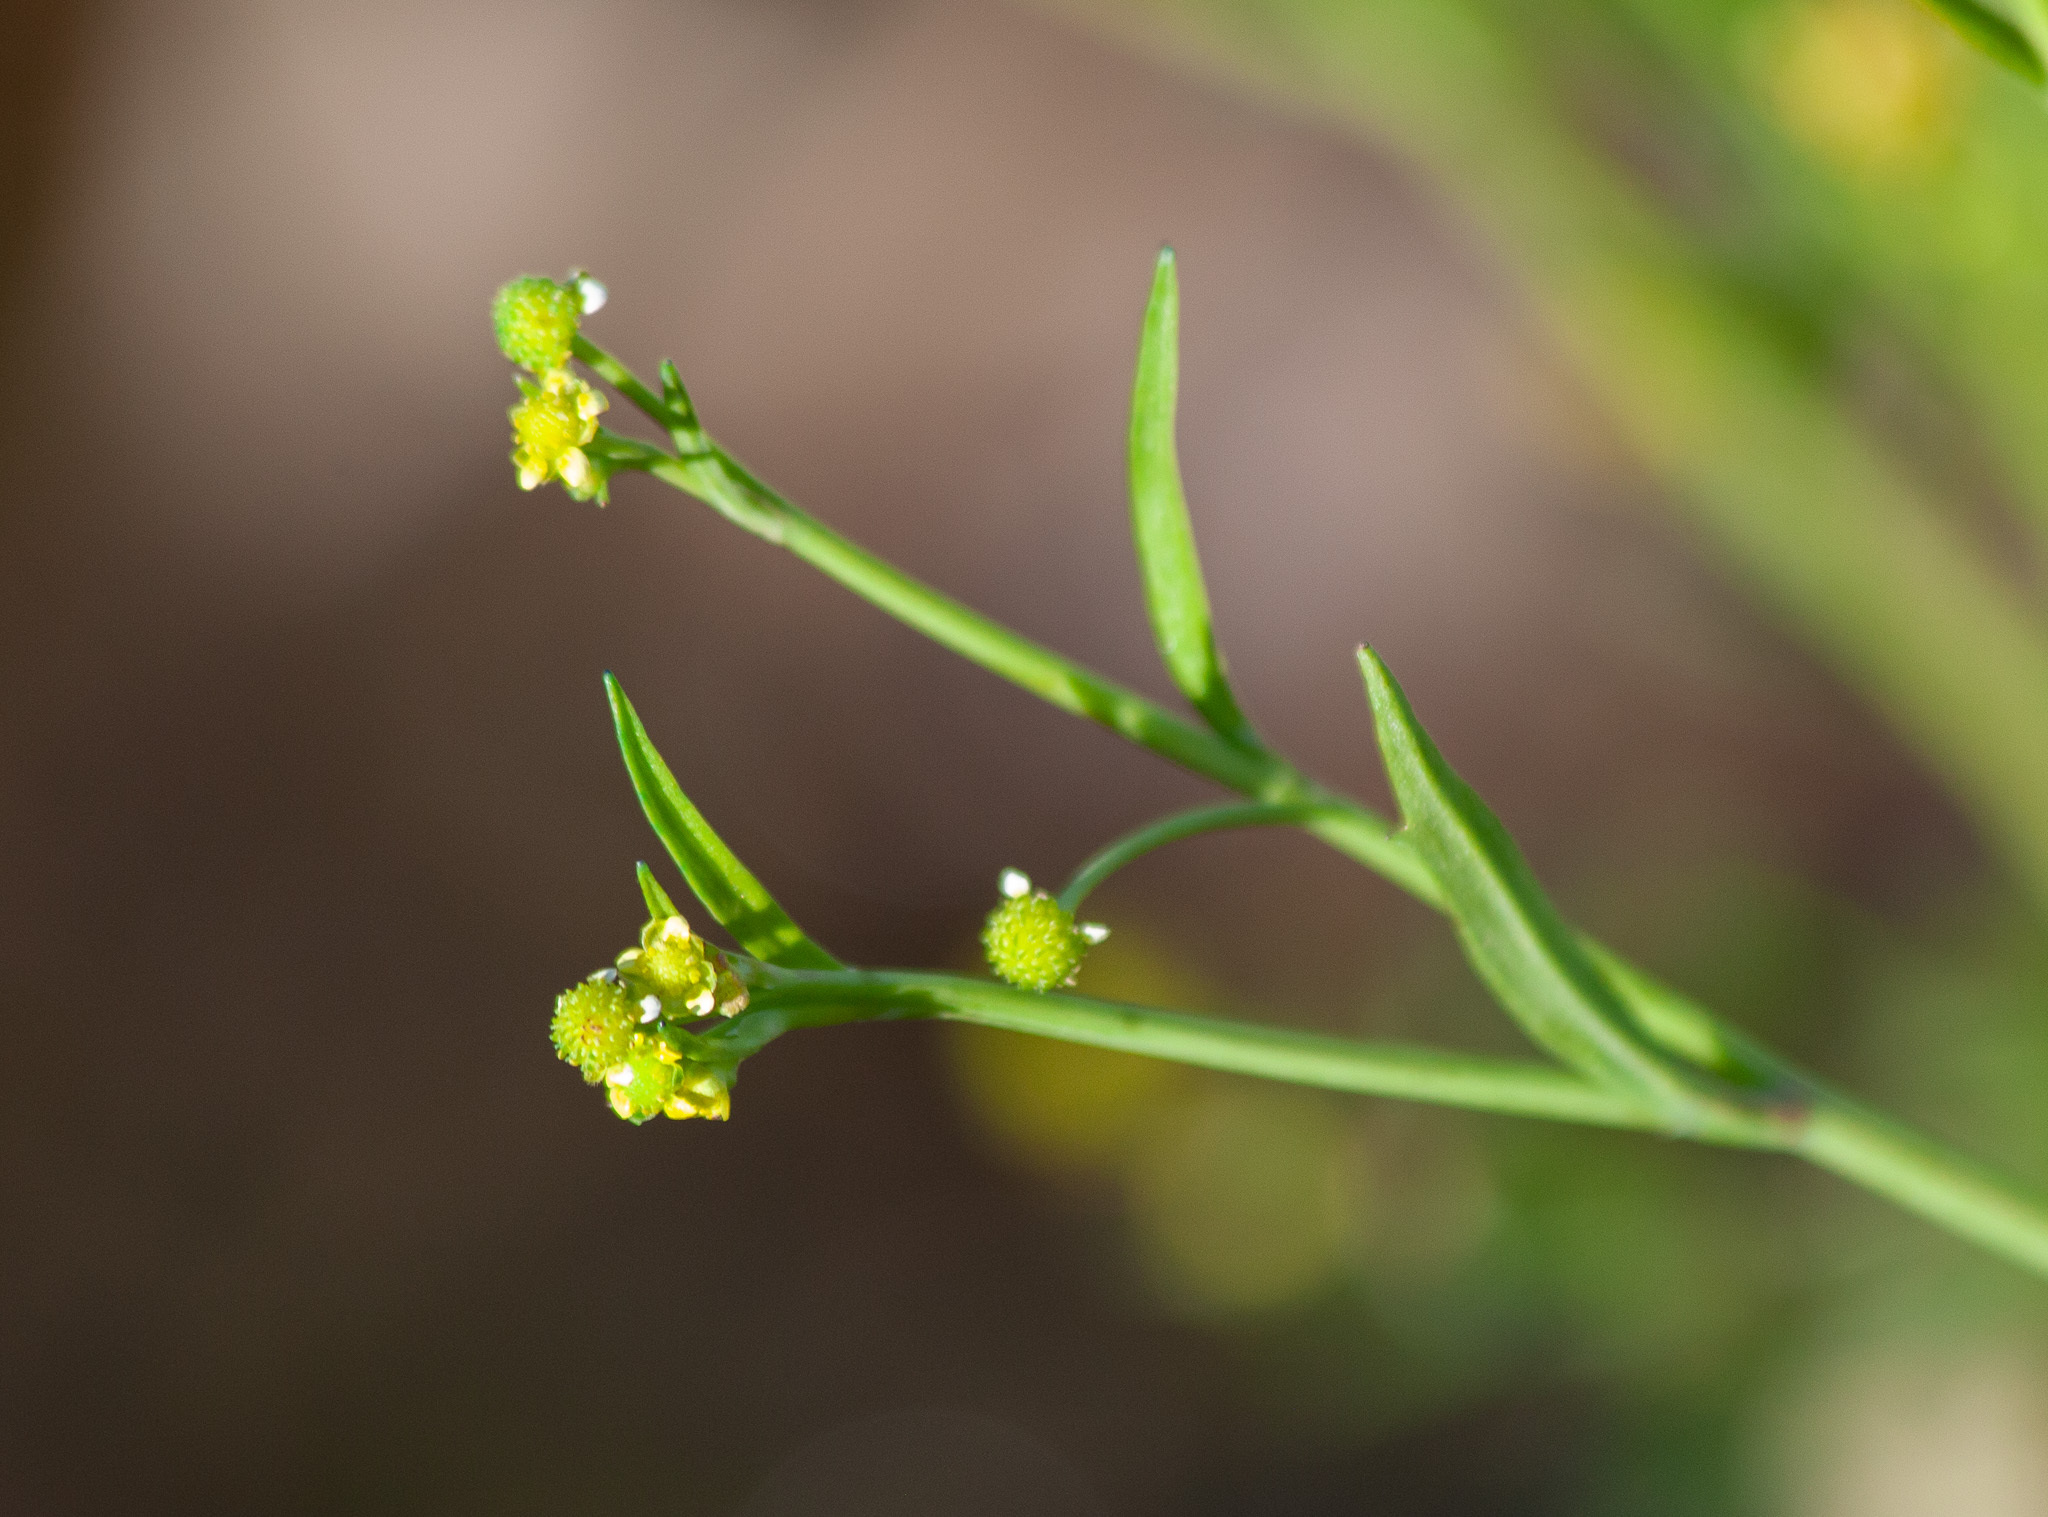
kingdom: Plantae
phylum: Tracheophyta
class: Magnoliopsida
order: Ranunculales
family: Ranunculaceae
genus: Ranunculus
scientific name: Ranunculus pusillus
